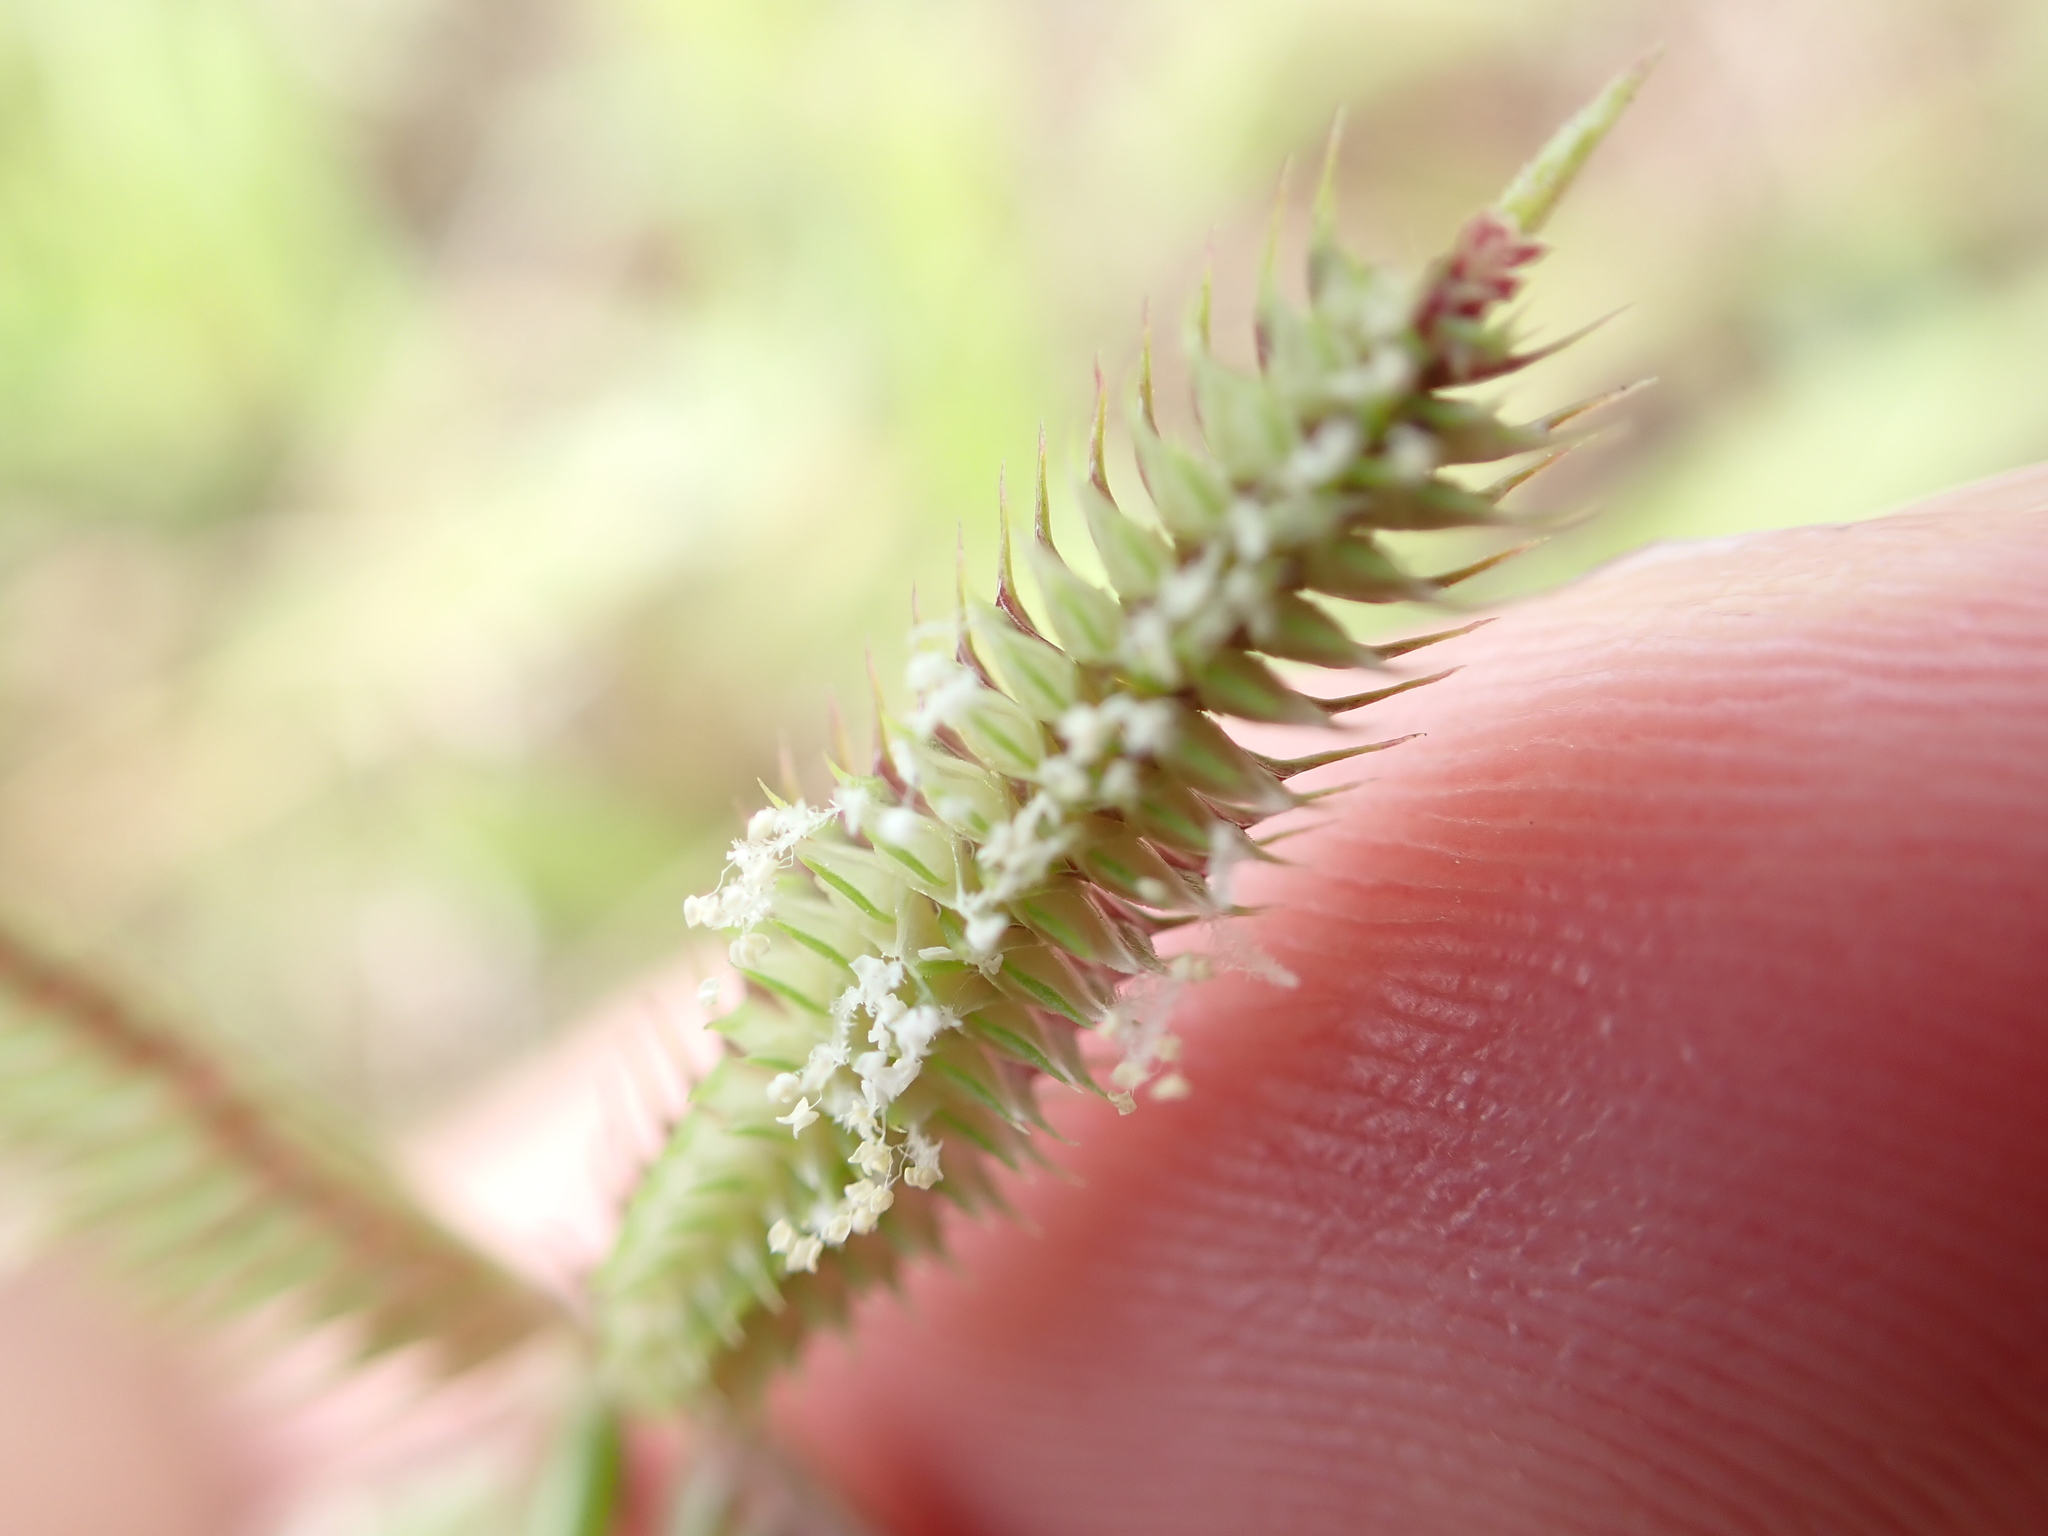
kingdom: Plantae
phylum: Tracheophyta
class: Liliopsida
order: Poales
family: Poaceae
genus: Dactyloctenium
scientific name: Dactyloctenium aegyptium
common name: Egyptian grass
